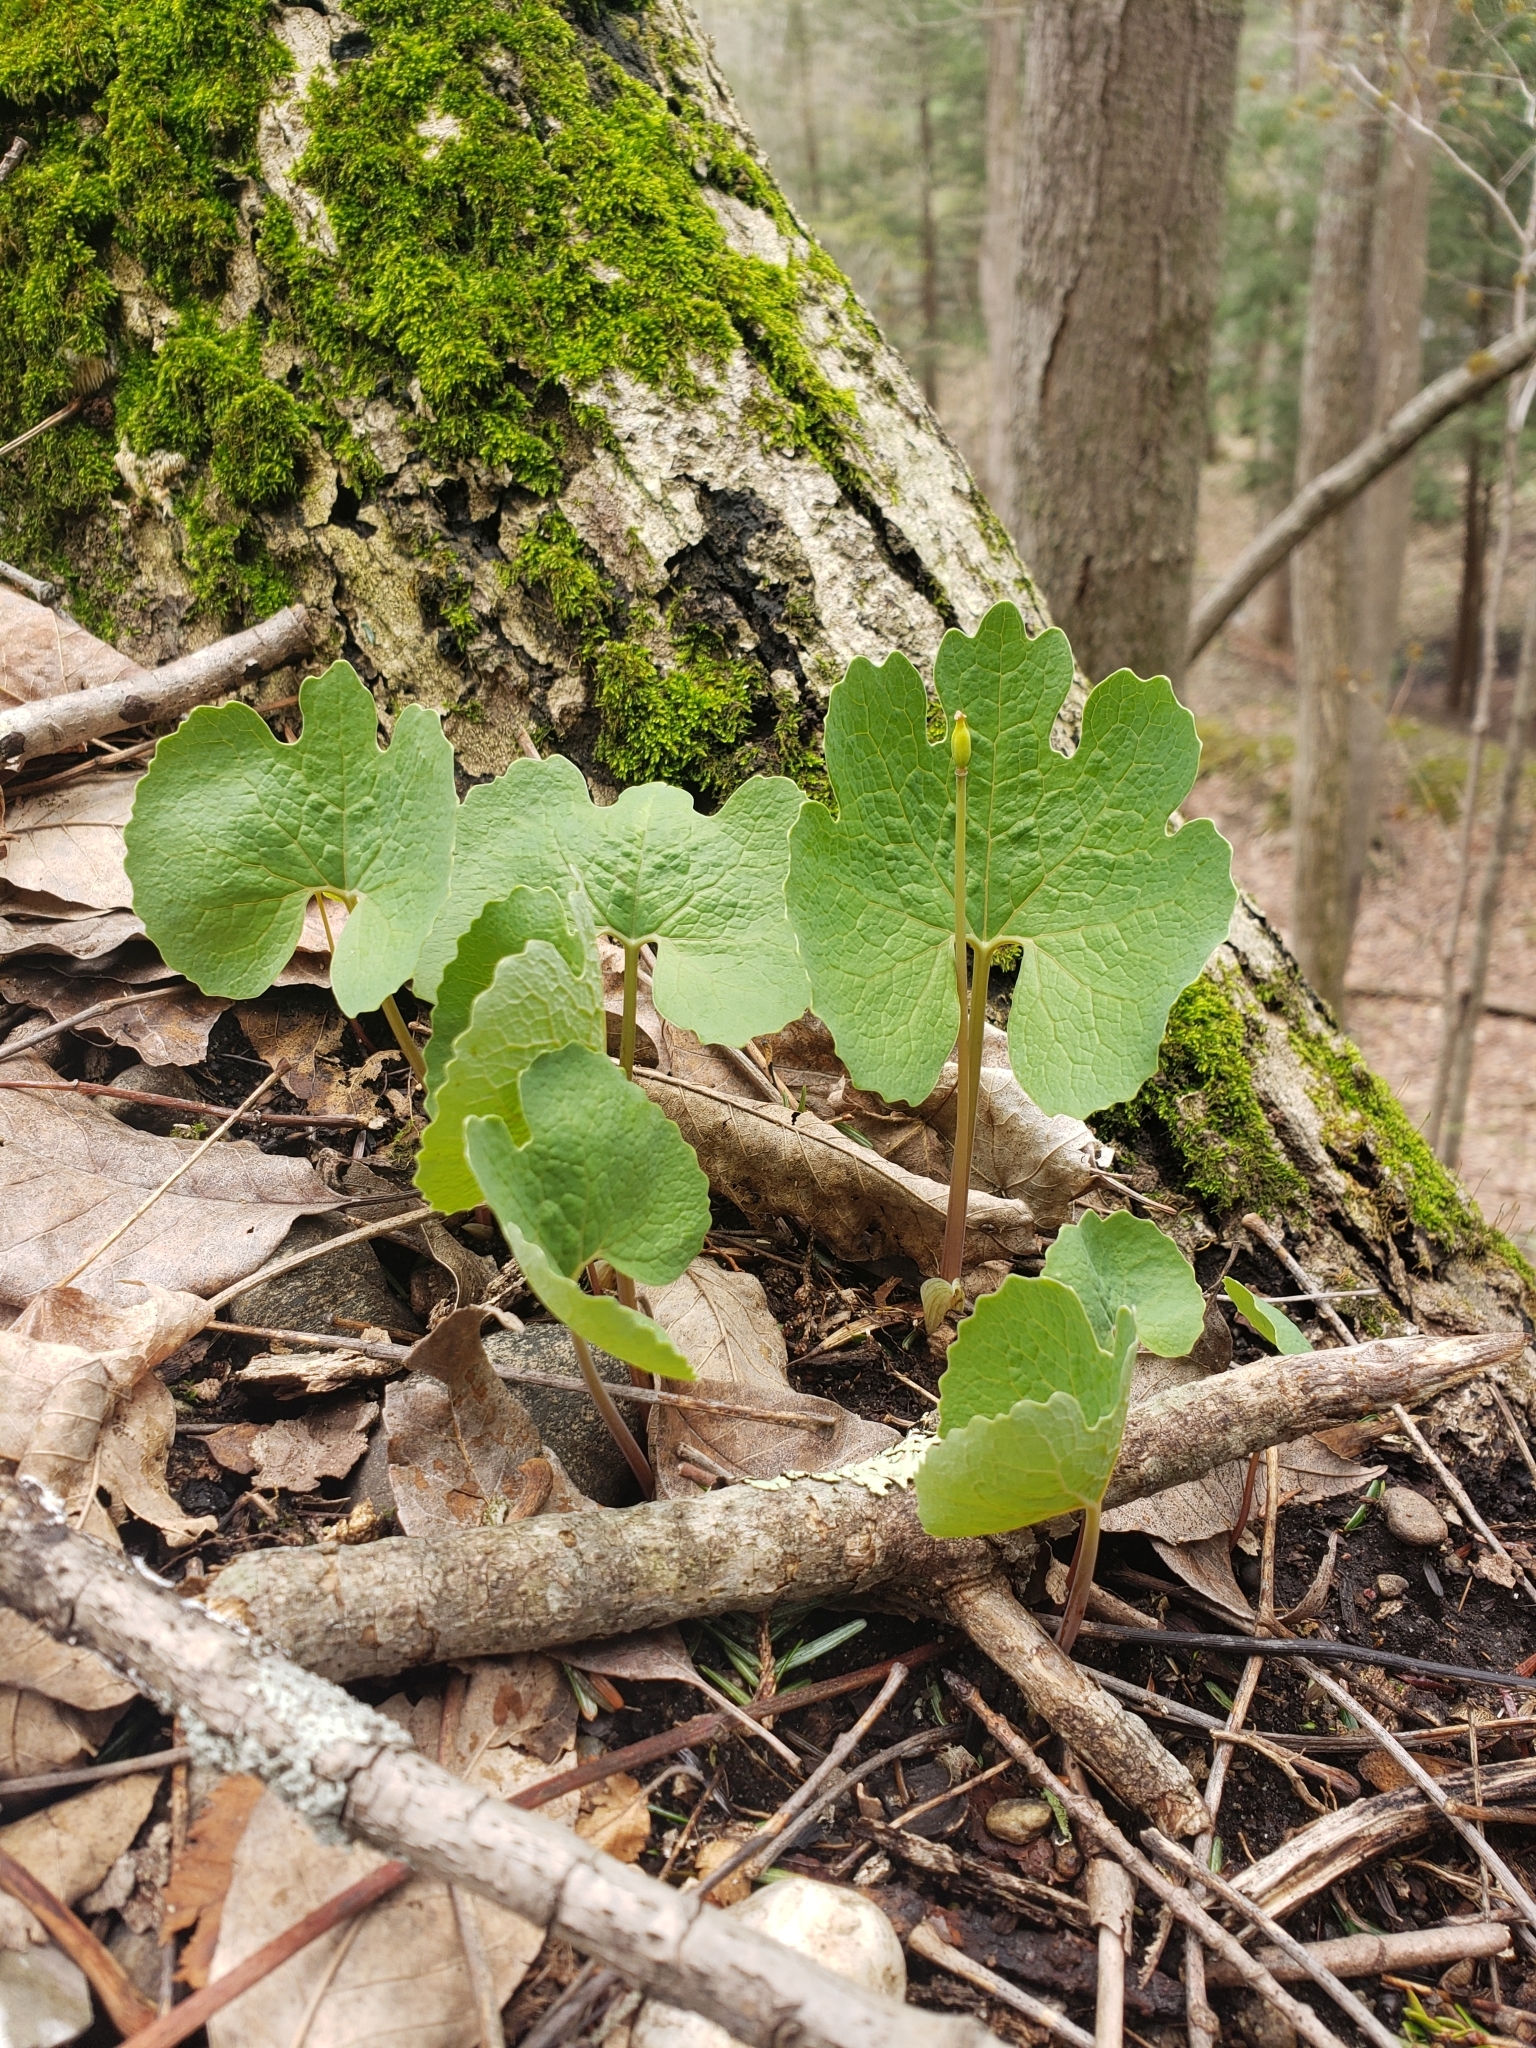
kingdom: Plantae
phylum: Tracheophyta
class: Magnoliopsida
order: Ranunculales
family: Papaveraceae
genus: Sanguinaria
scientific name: Sanguinaria canadensis
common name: Bloodroot
